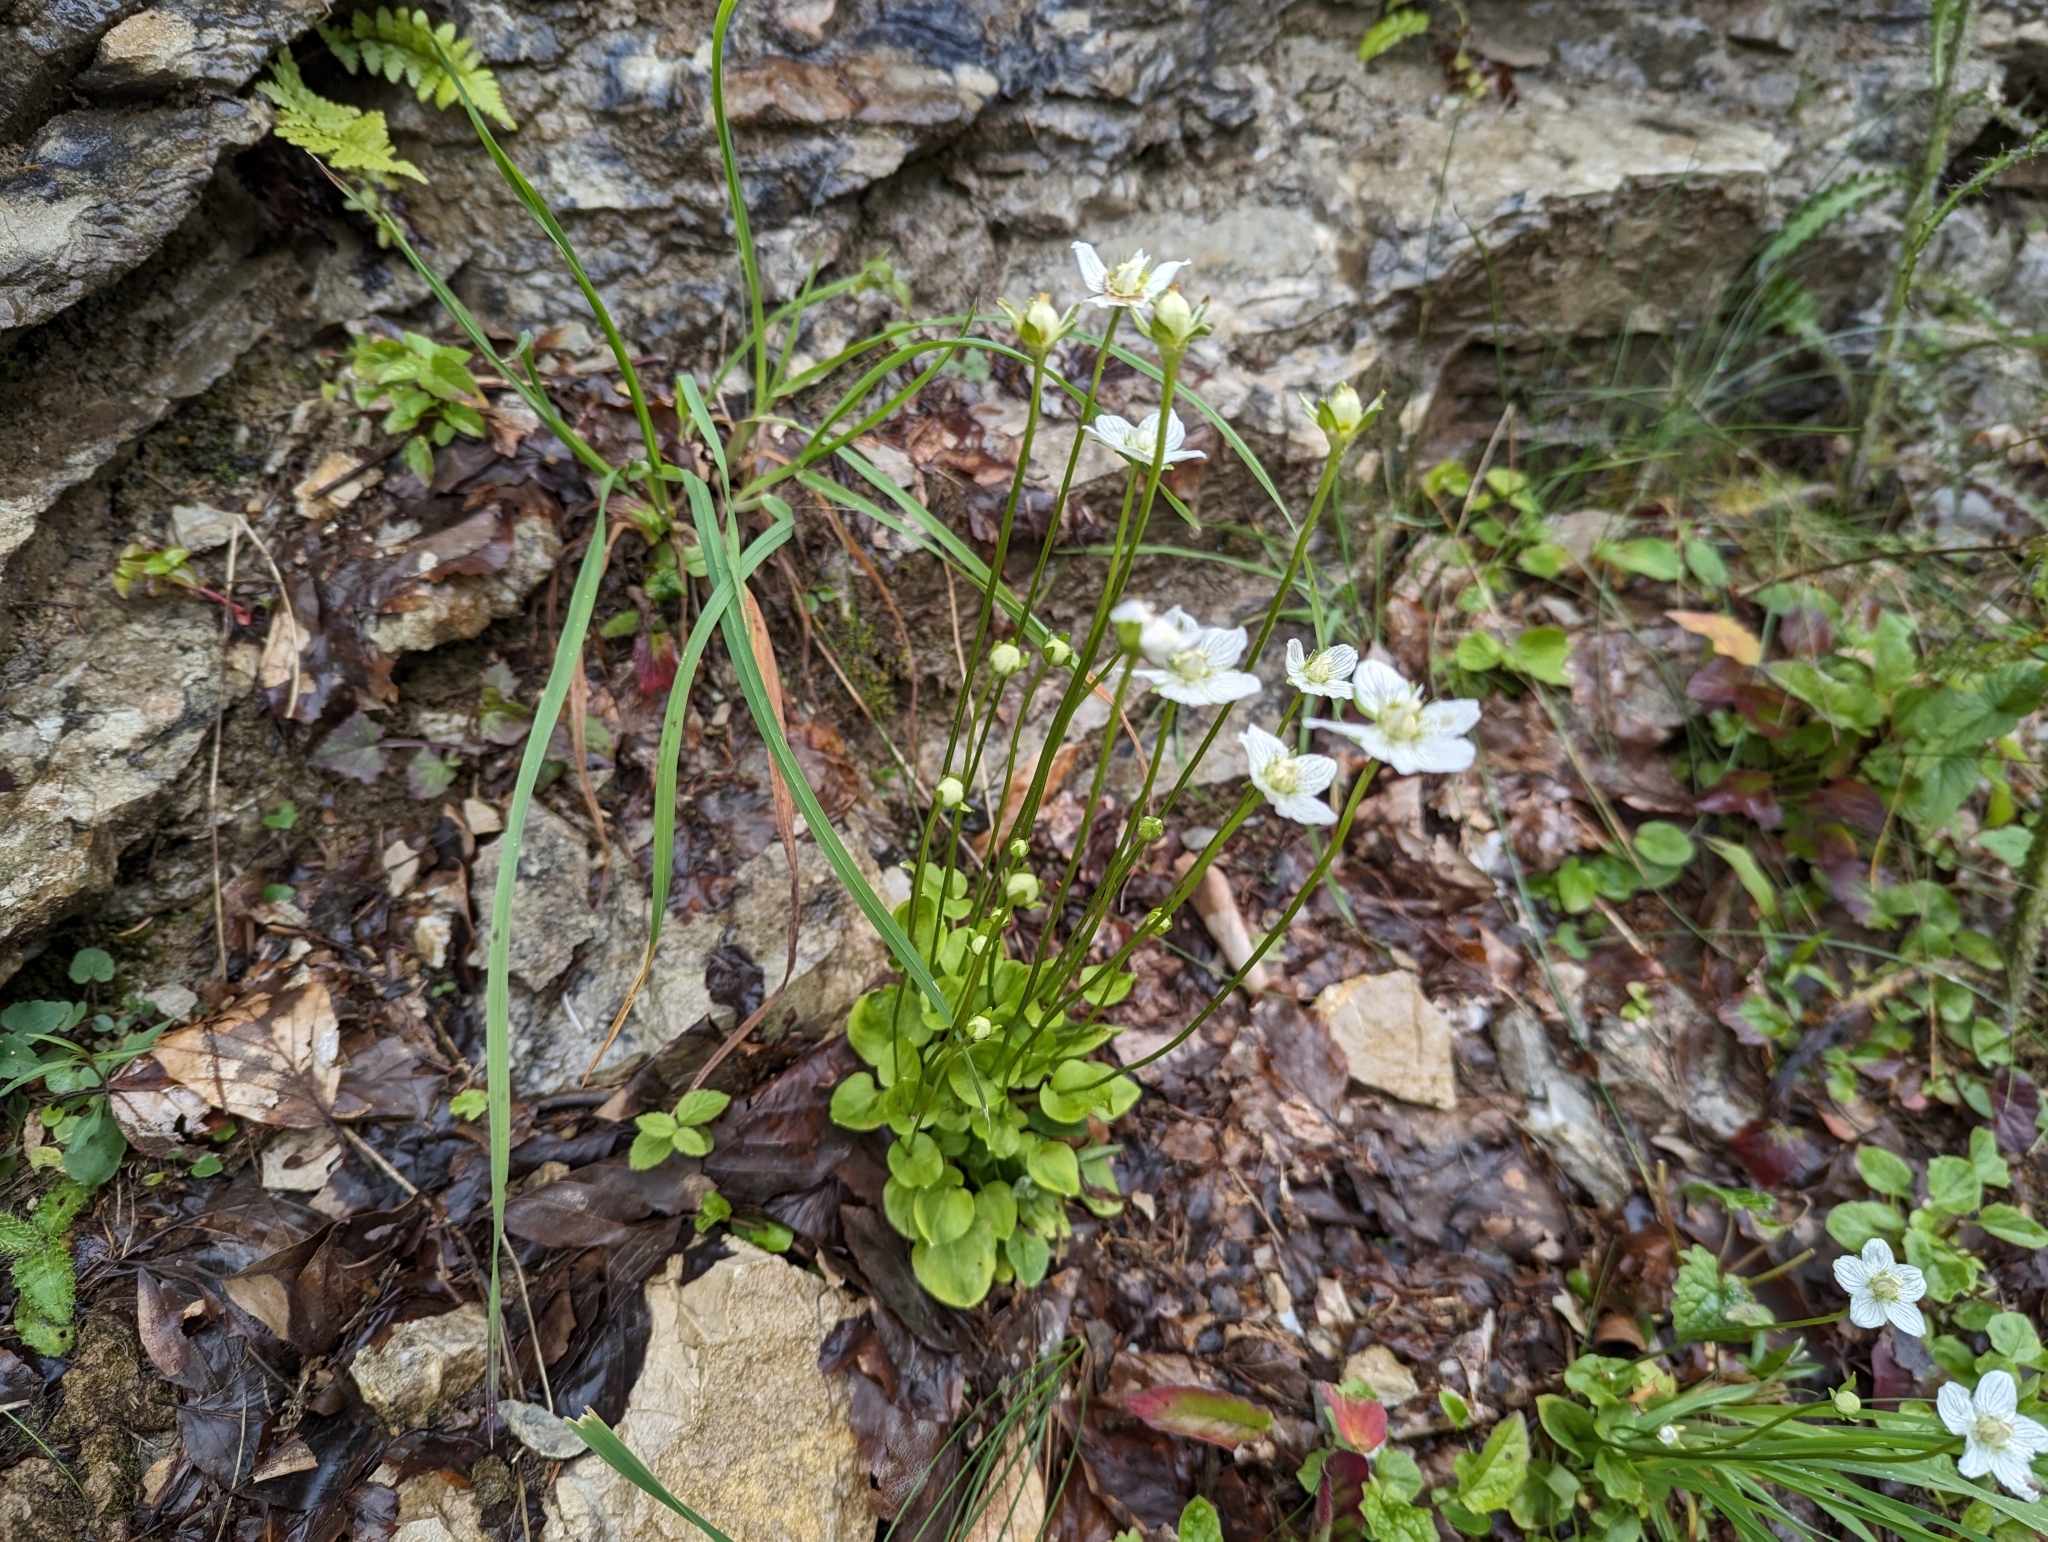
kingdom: Plantae
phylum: Tracheophyta
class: Magnoliopsida
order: Celastrales
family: Parnassiaceae
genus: Parnassia
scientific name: Parnassia palustris
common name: Grass-of-parnassus
